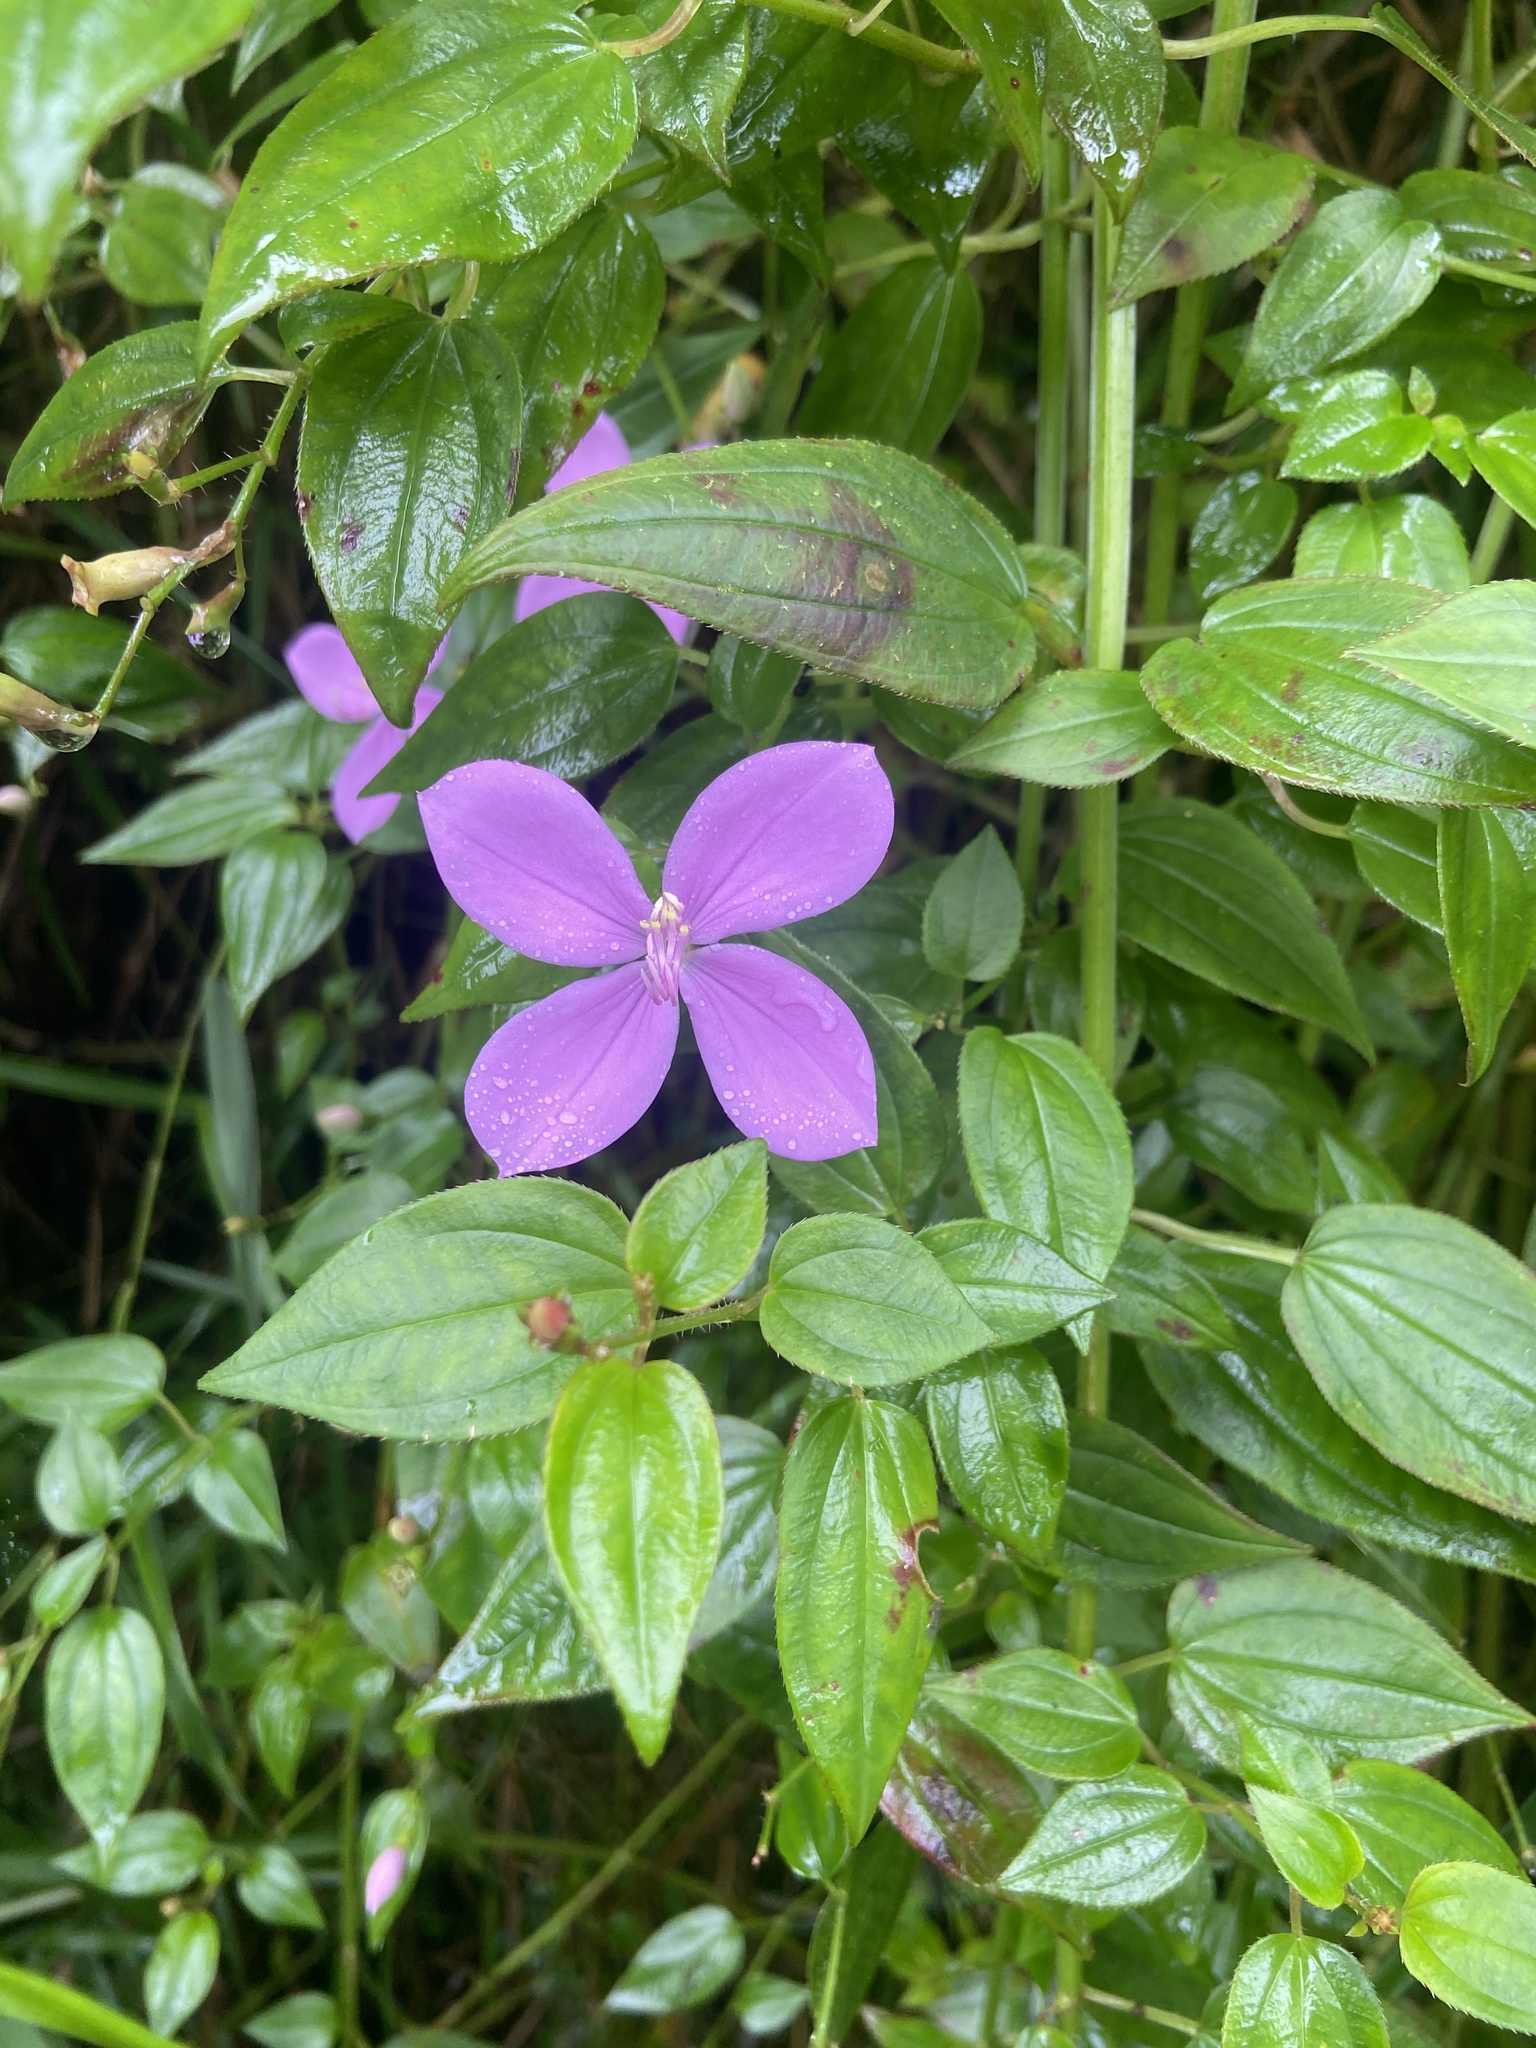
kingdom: Plantae
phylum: Tracheophyta
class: Magnoliopsida
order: Myrtales
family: Melastomataceae
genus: Arthrostemma
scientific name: Arthrostemma ciliatum
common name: Everblooming eavender
